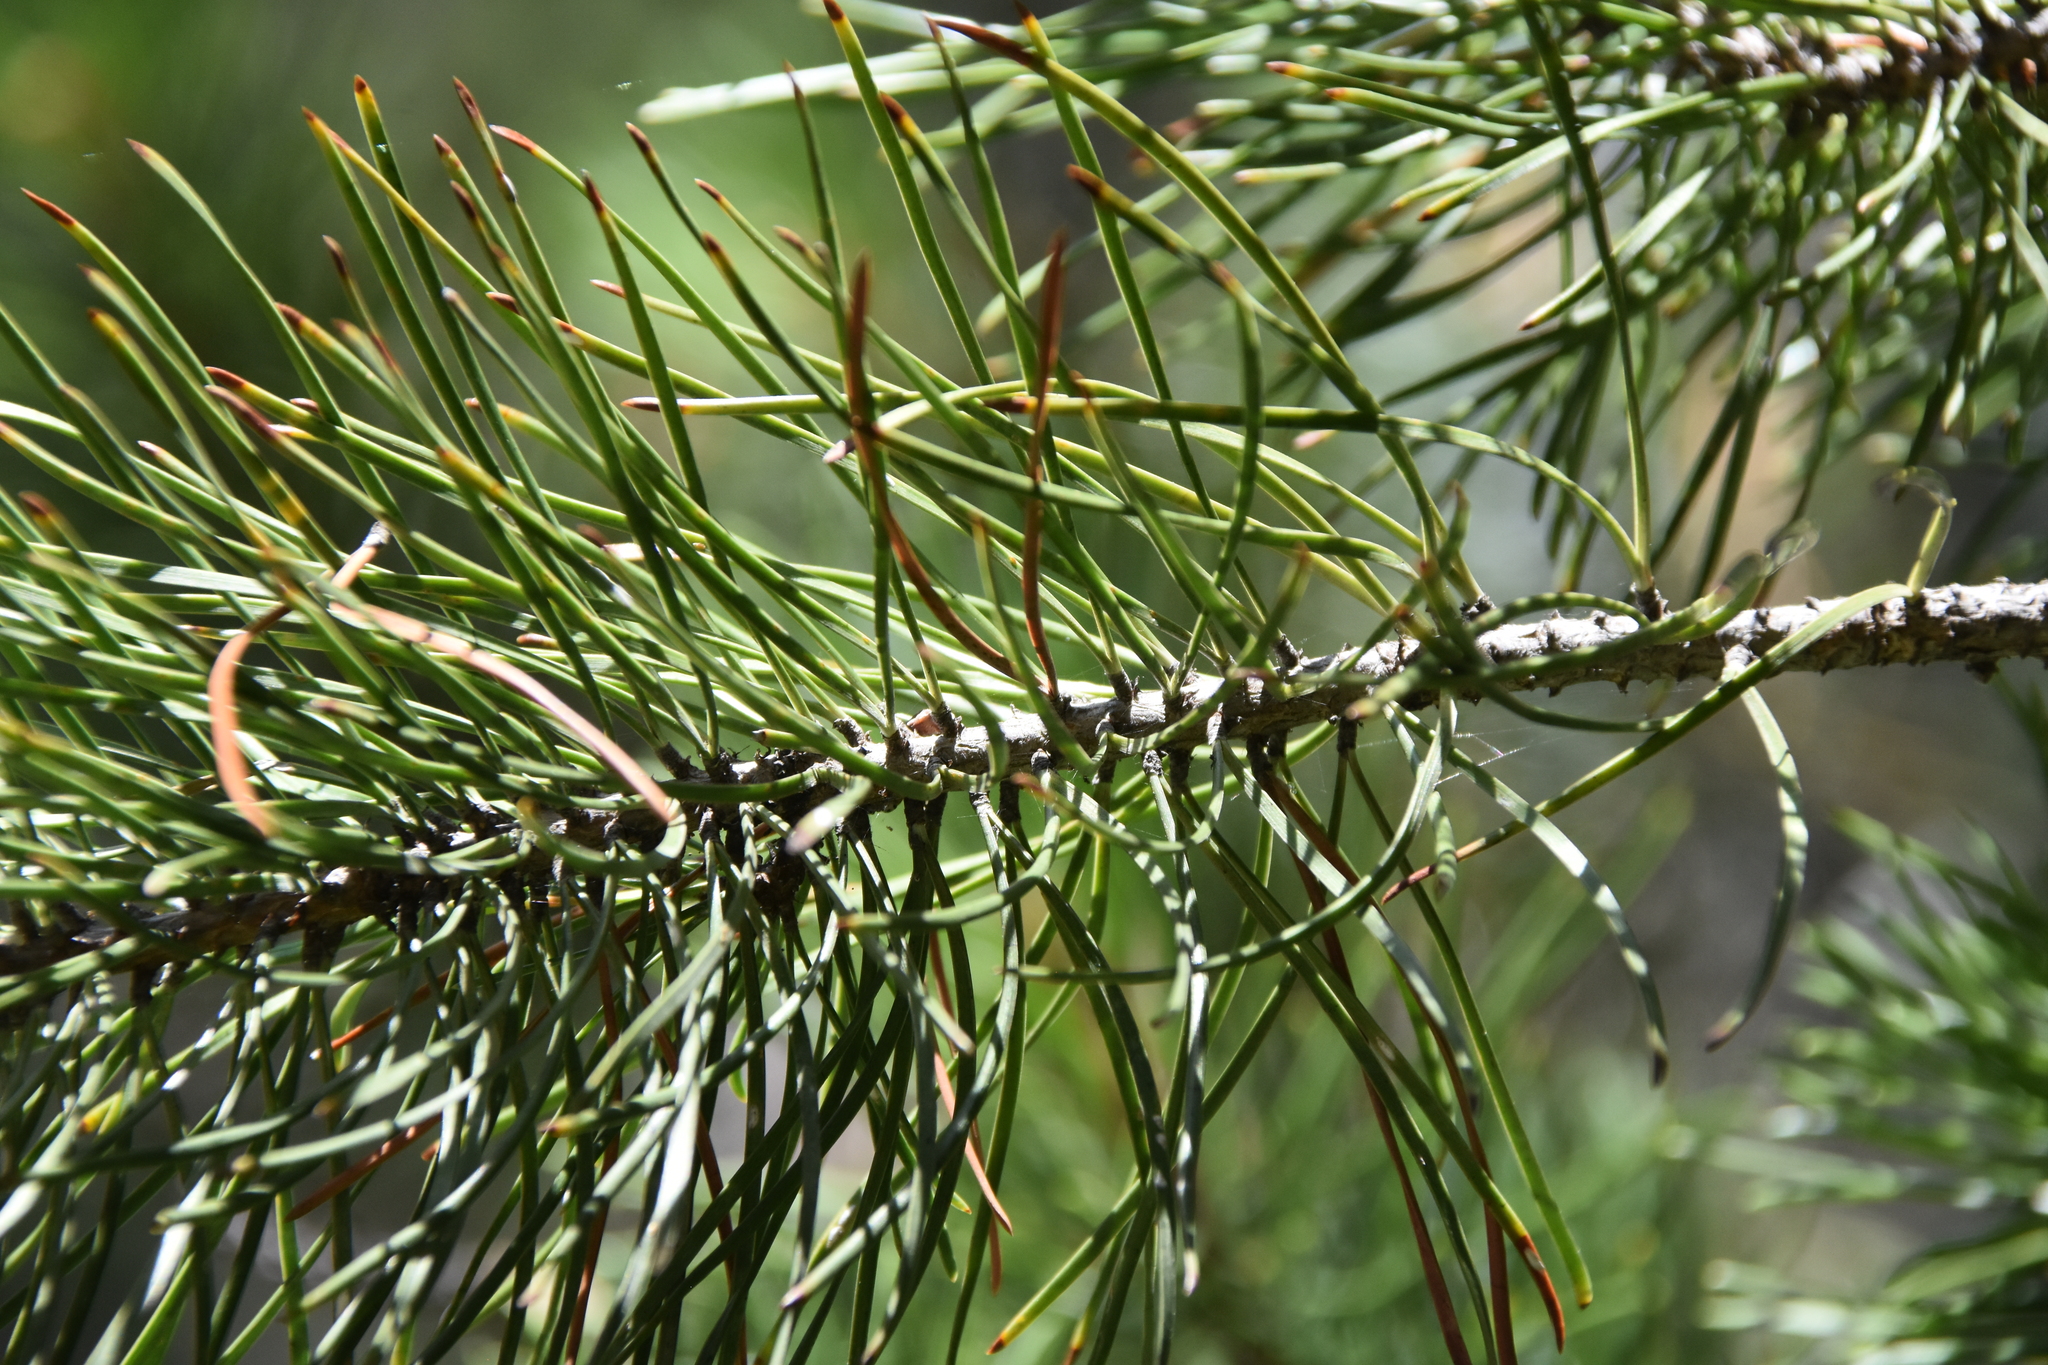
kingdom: Plantae
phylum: Tracheophyta
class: Pinopsida
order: Pinales
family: Pinaceae
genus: Pinus
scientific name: Pinus contorta
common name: Lodgepole pine
